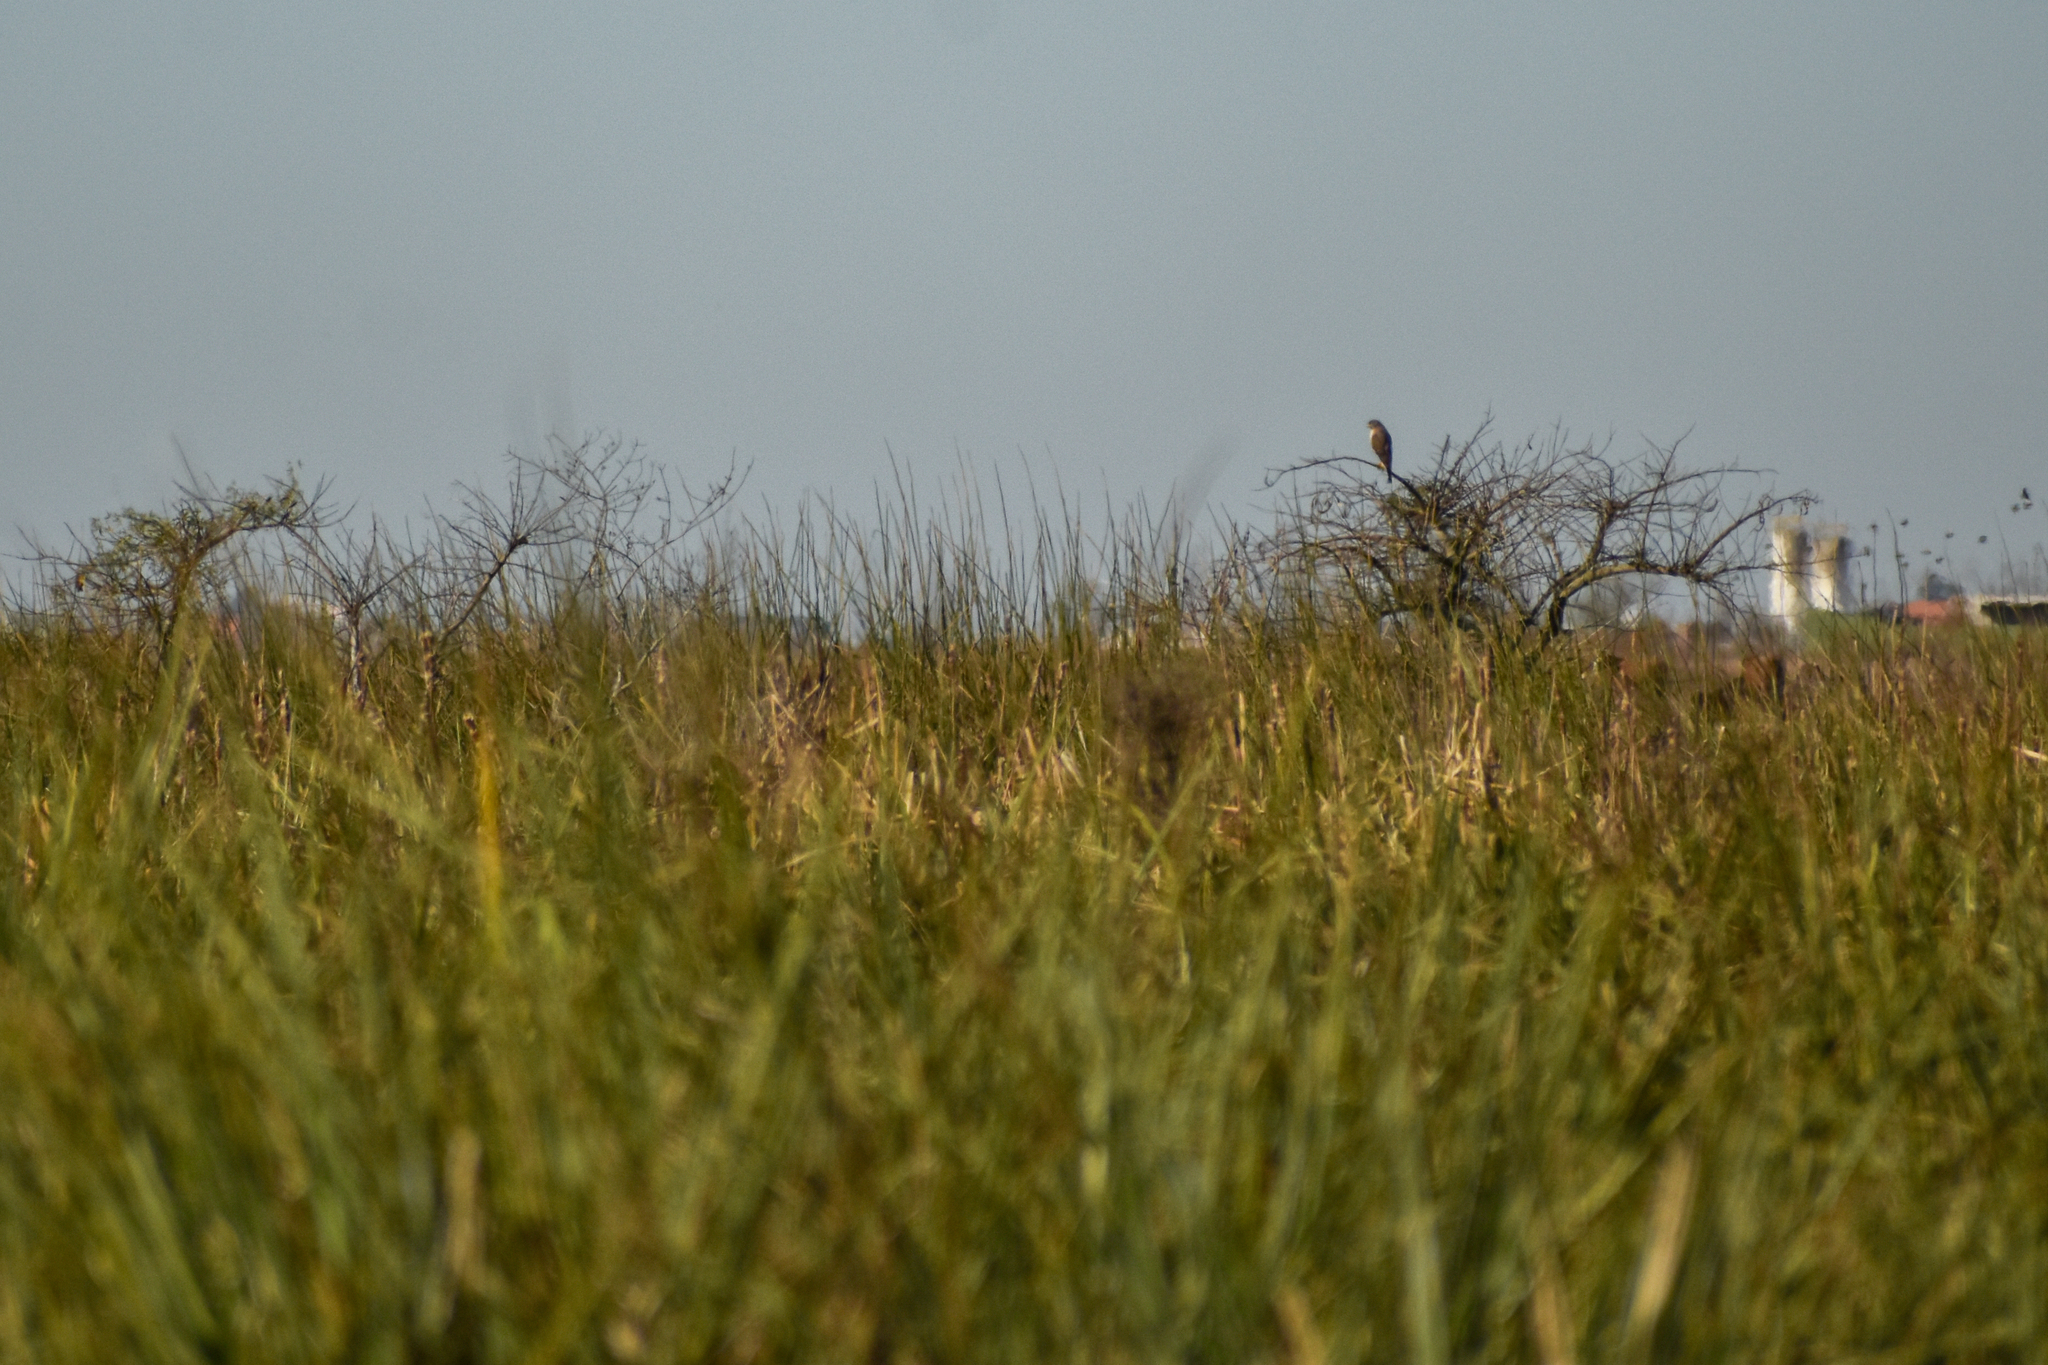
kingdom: Animalia
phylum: Chordata
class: Aves
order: Accipitriformes
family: Accipitridae
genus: Rupornis
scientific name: Rupornis magnirostris
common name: Roadside hawk
